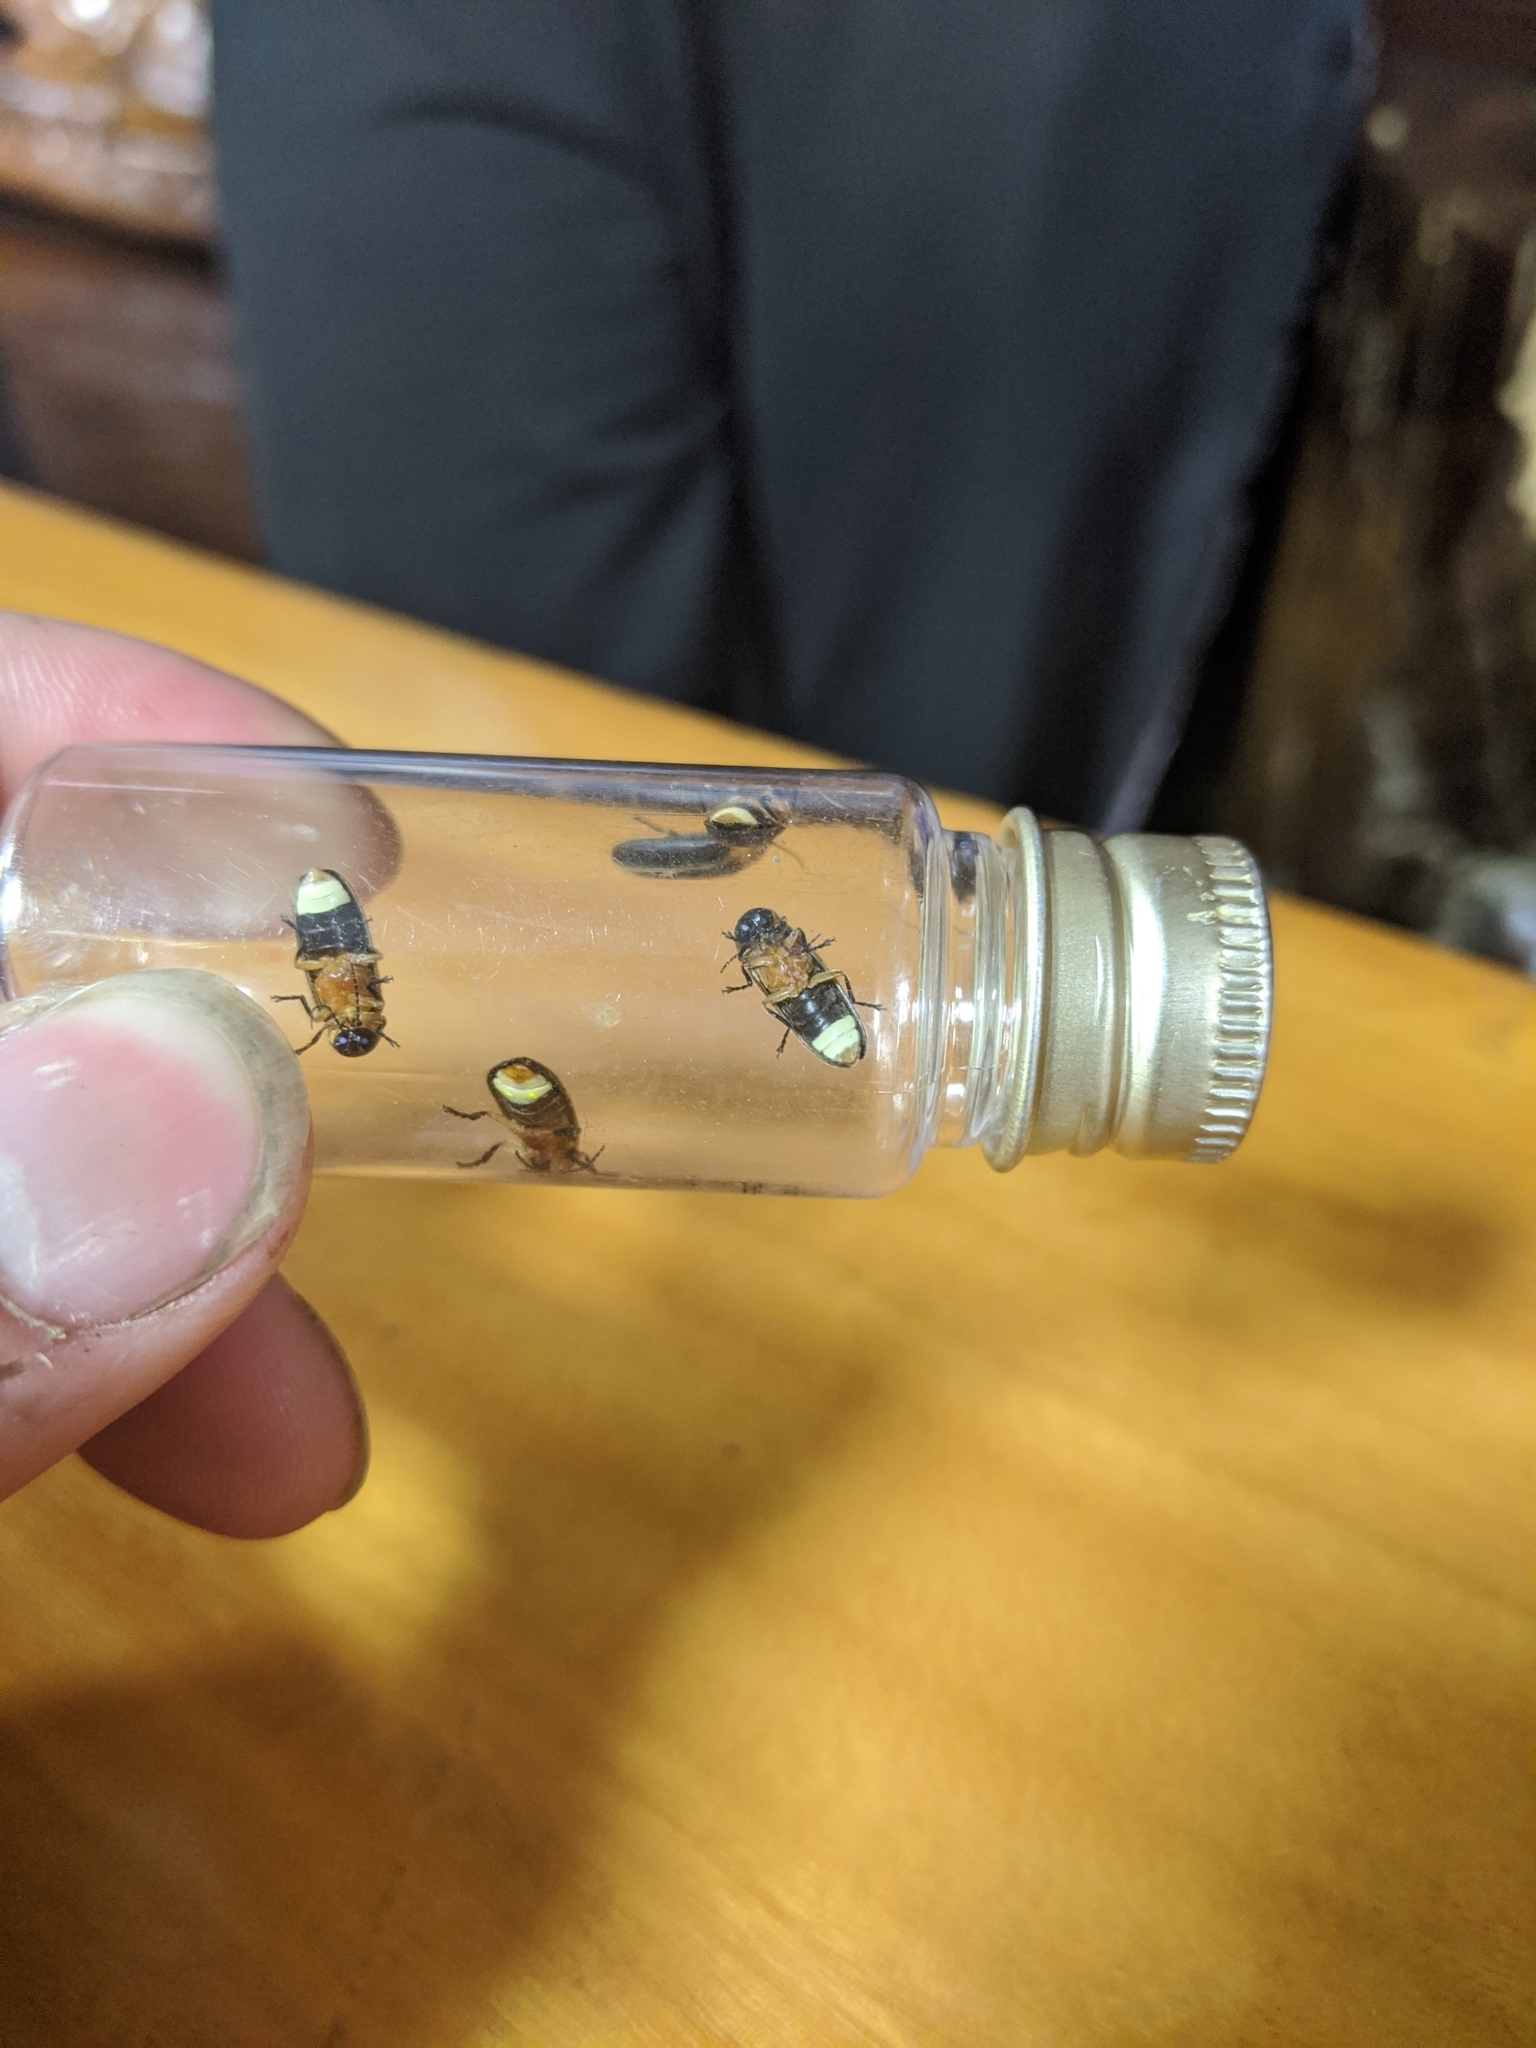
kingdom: Animalia
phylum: Arthropoda
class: Insecta
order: Coleoptera
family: Lampyridae
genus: Aquatica
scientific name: Aquatica ficta
